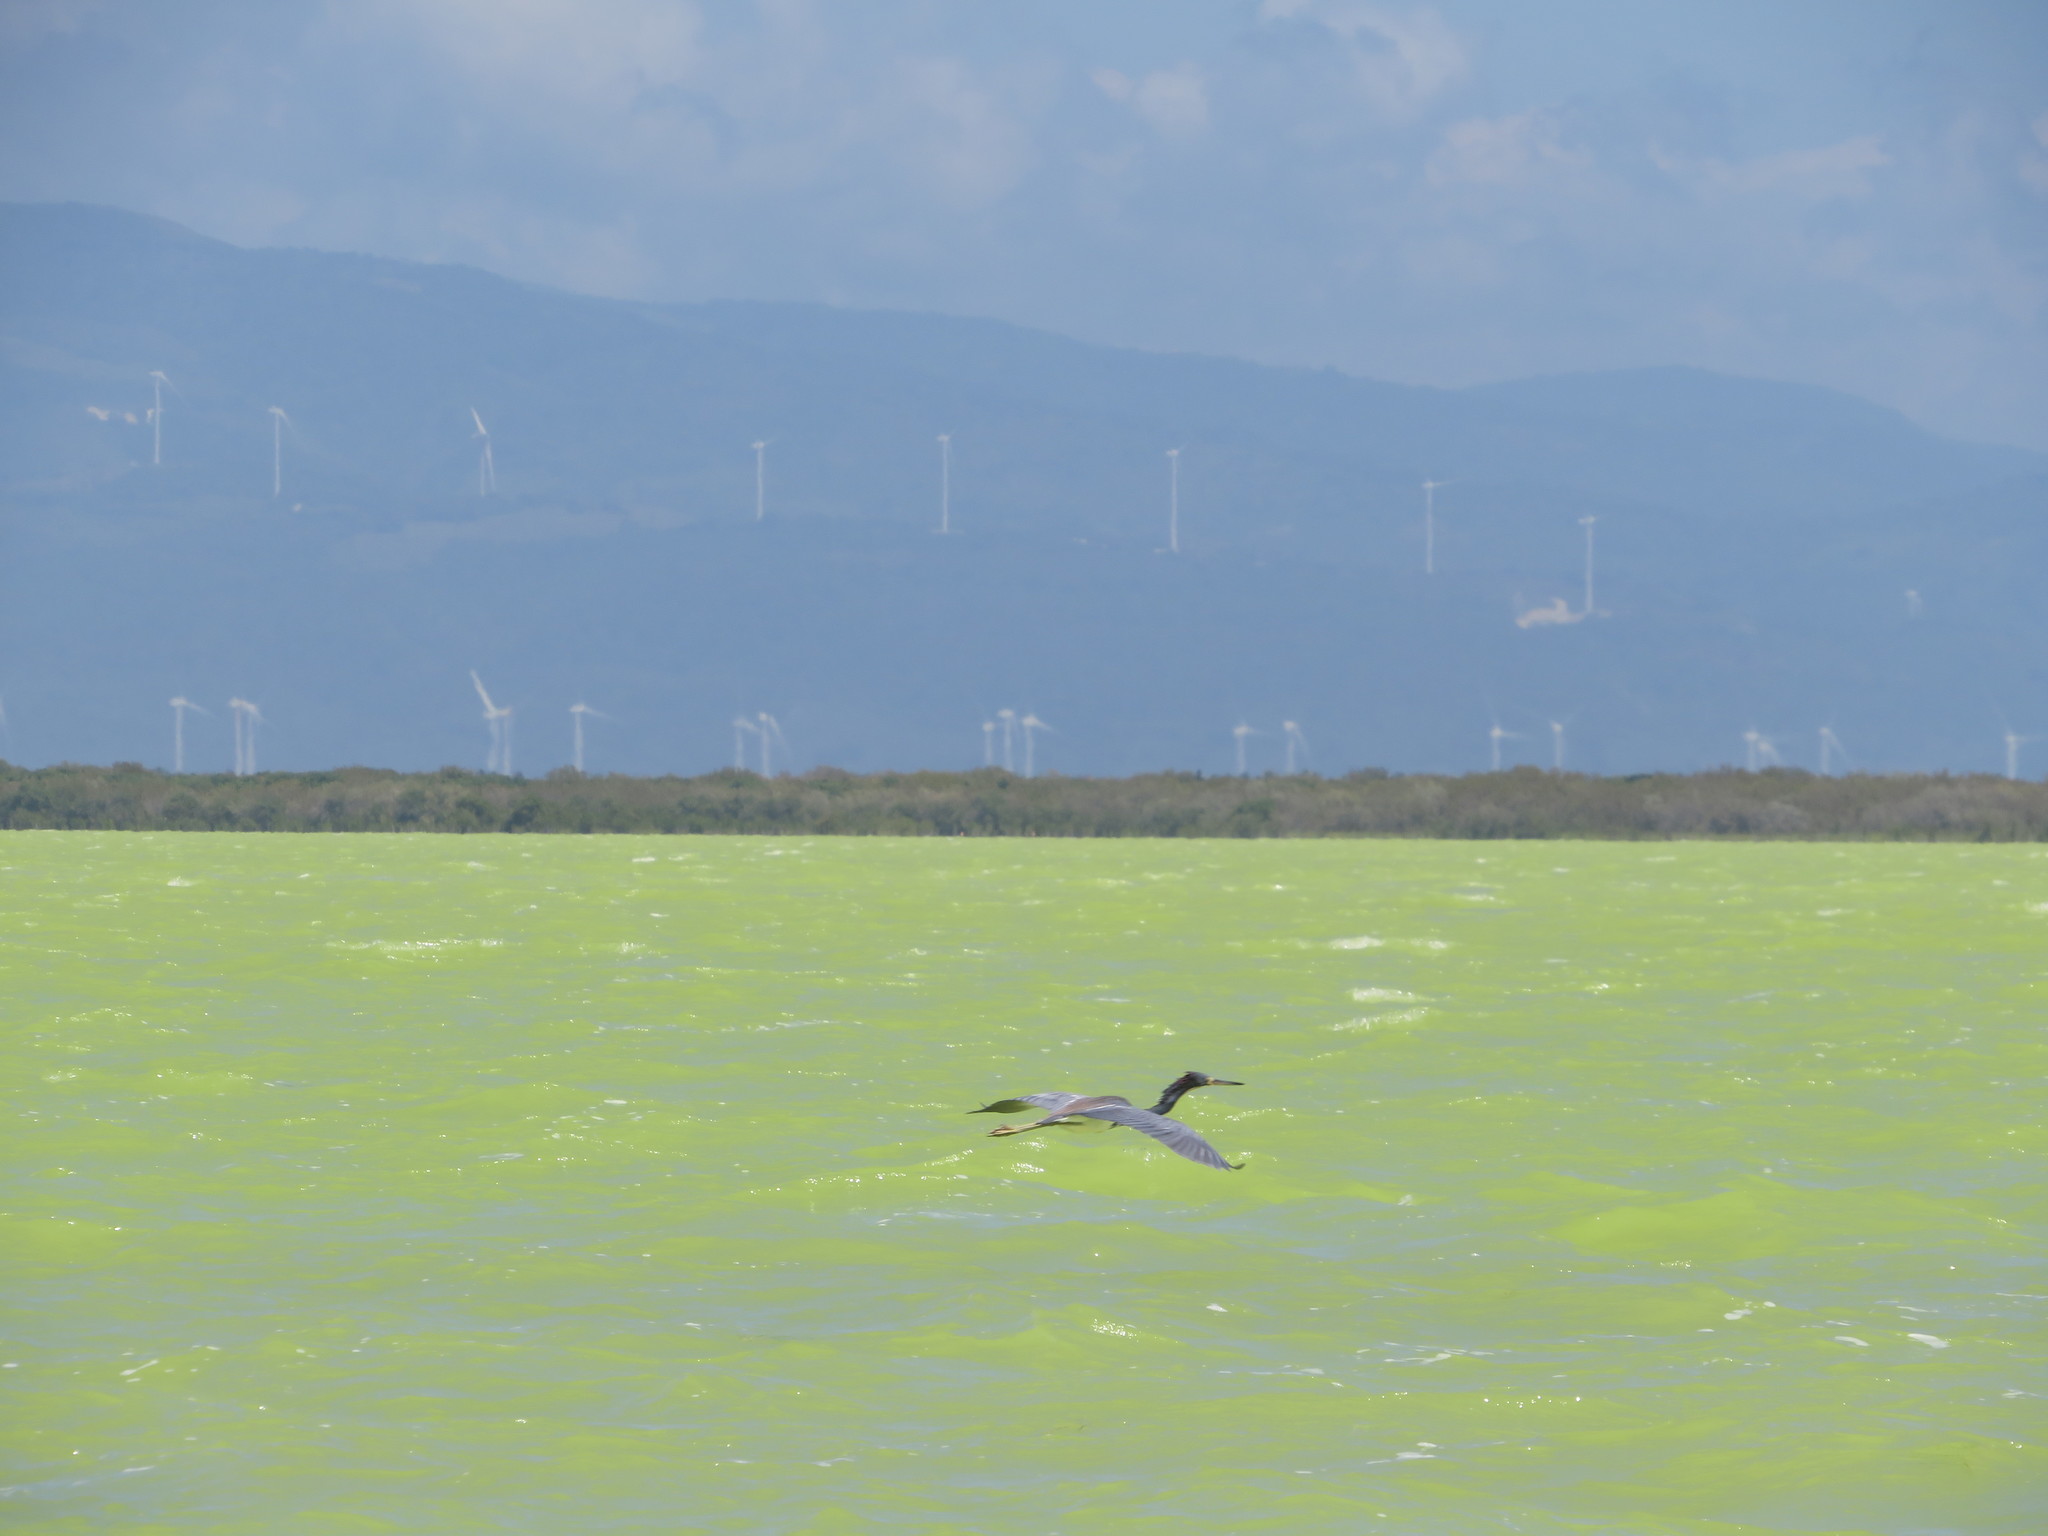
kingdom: Animalia
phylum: Chordata
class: Aves
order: Pelecaniformes
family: Ardeidae
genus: Egretta
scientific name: Egretta tricolor
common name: Tricolored heron
